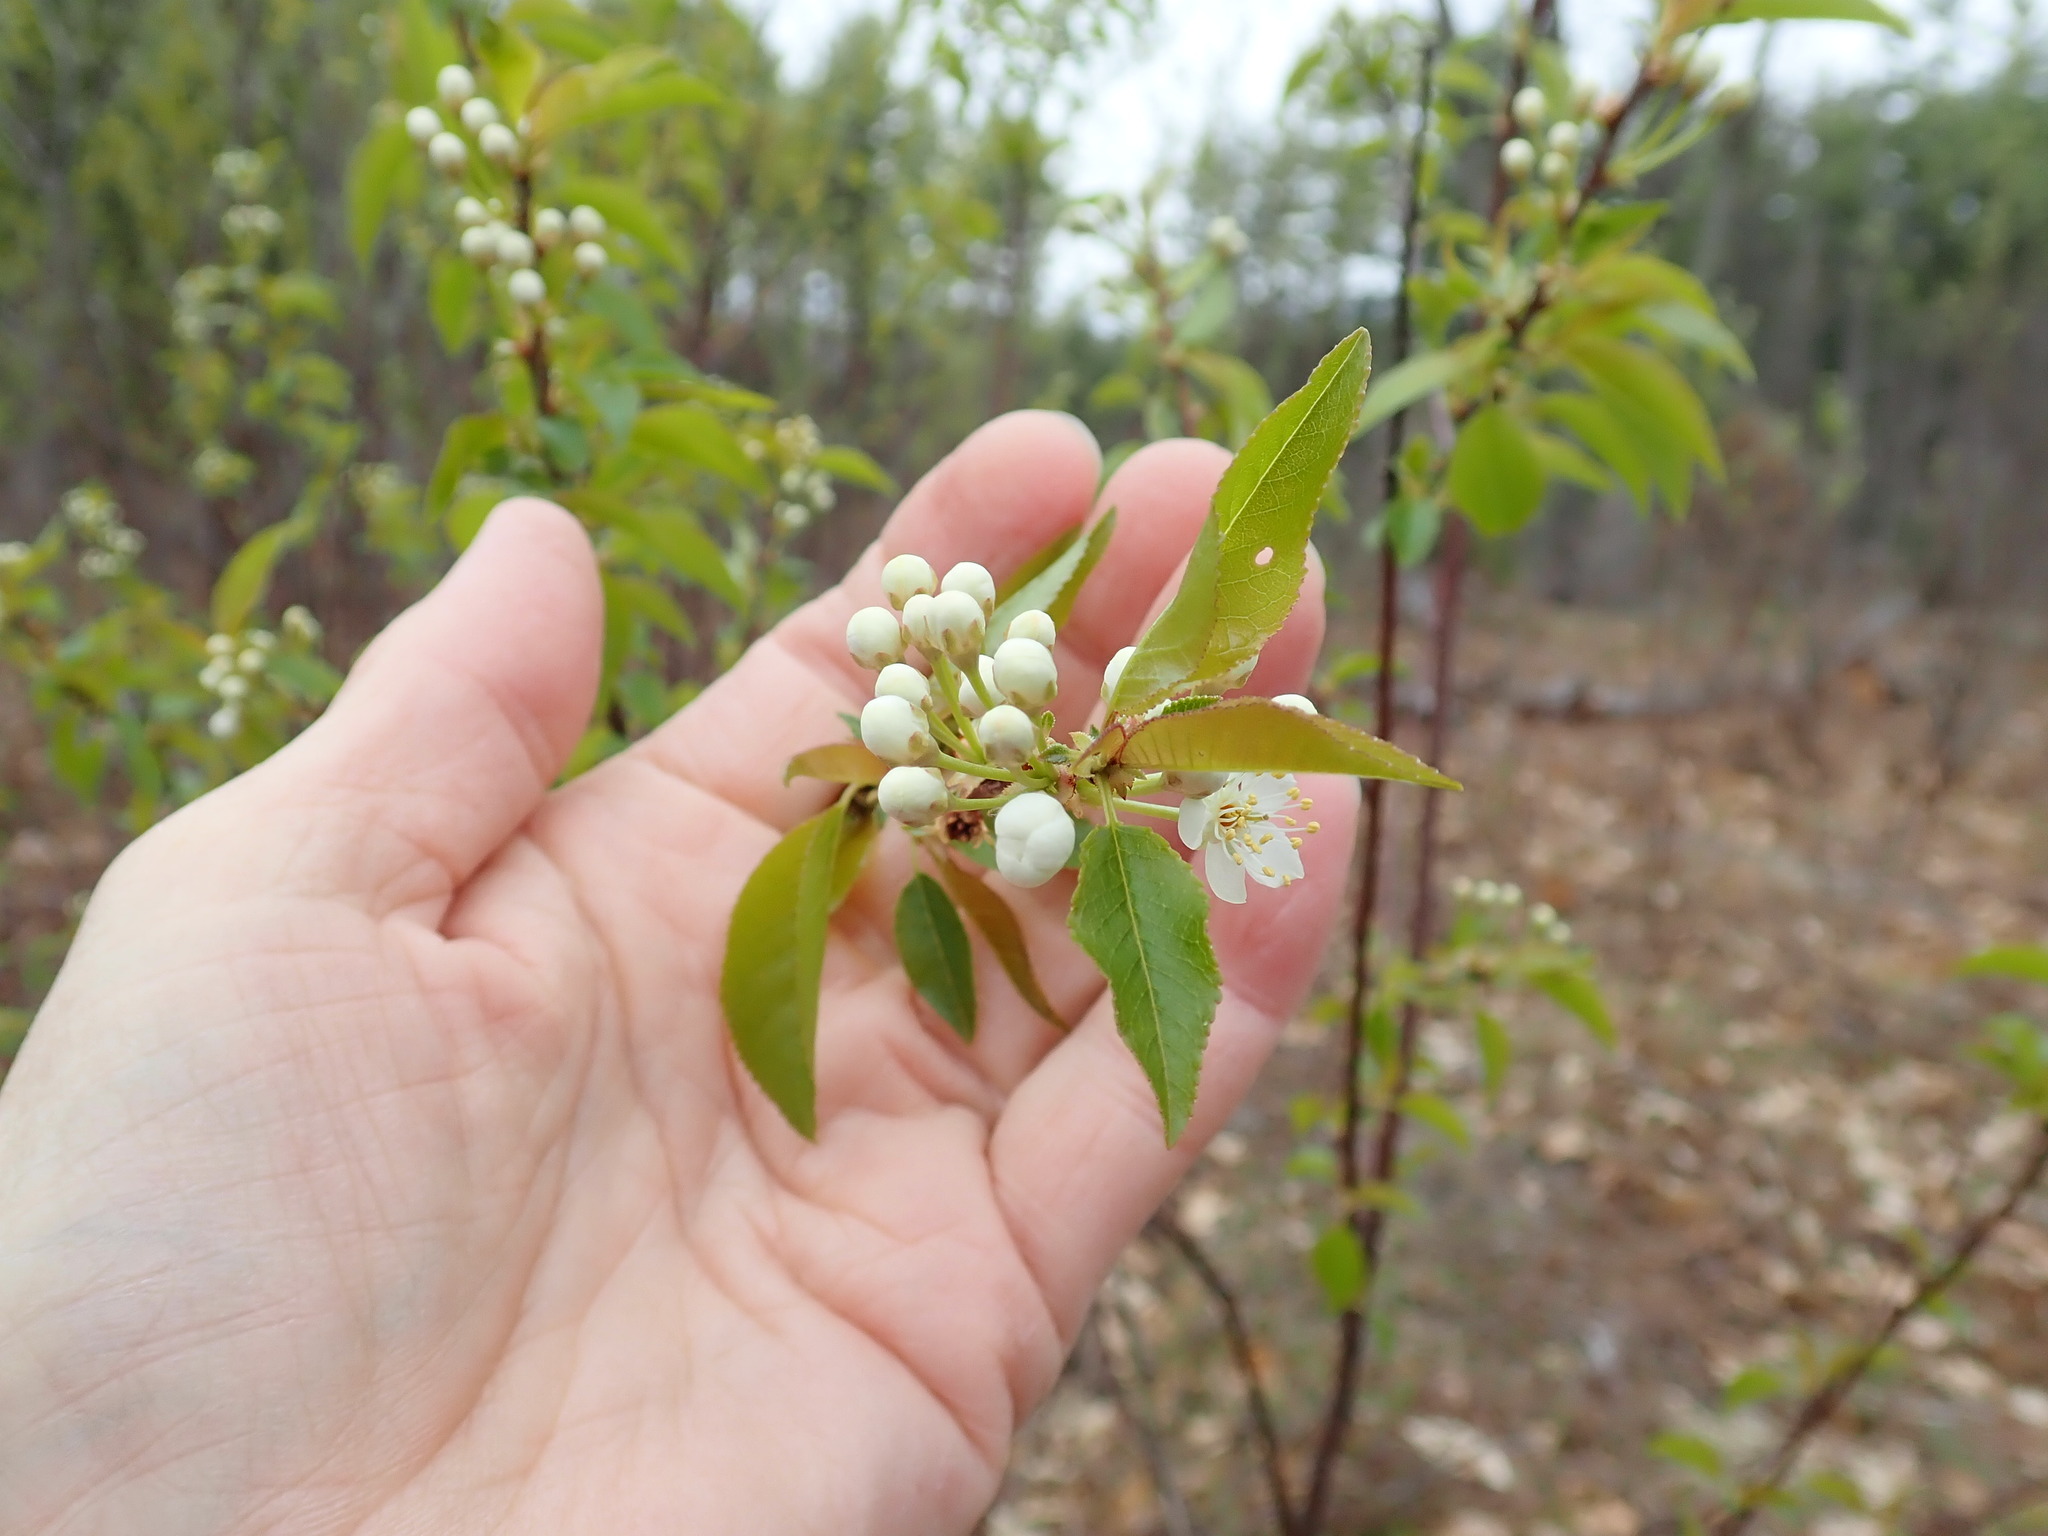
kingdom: Plantae
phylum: Tracheophyta
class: Magnoliopsida
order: Rosales
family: Rosaceae
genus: Prunus
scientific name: Prunus pensylvanica
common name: Pin cherry
